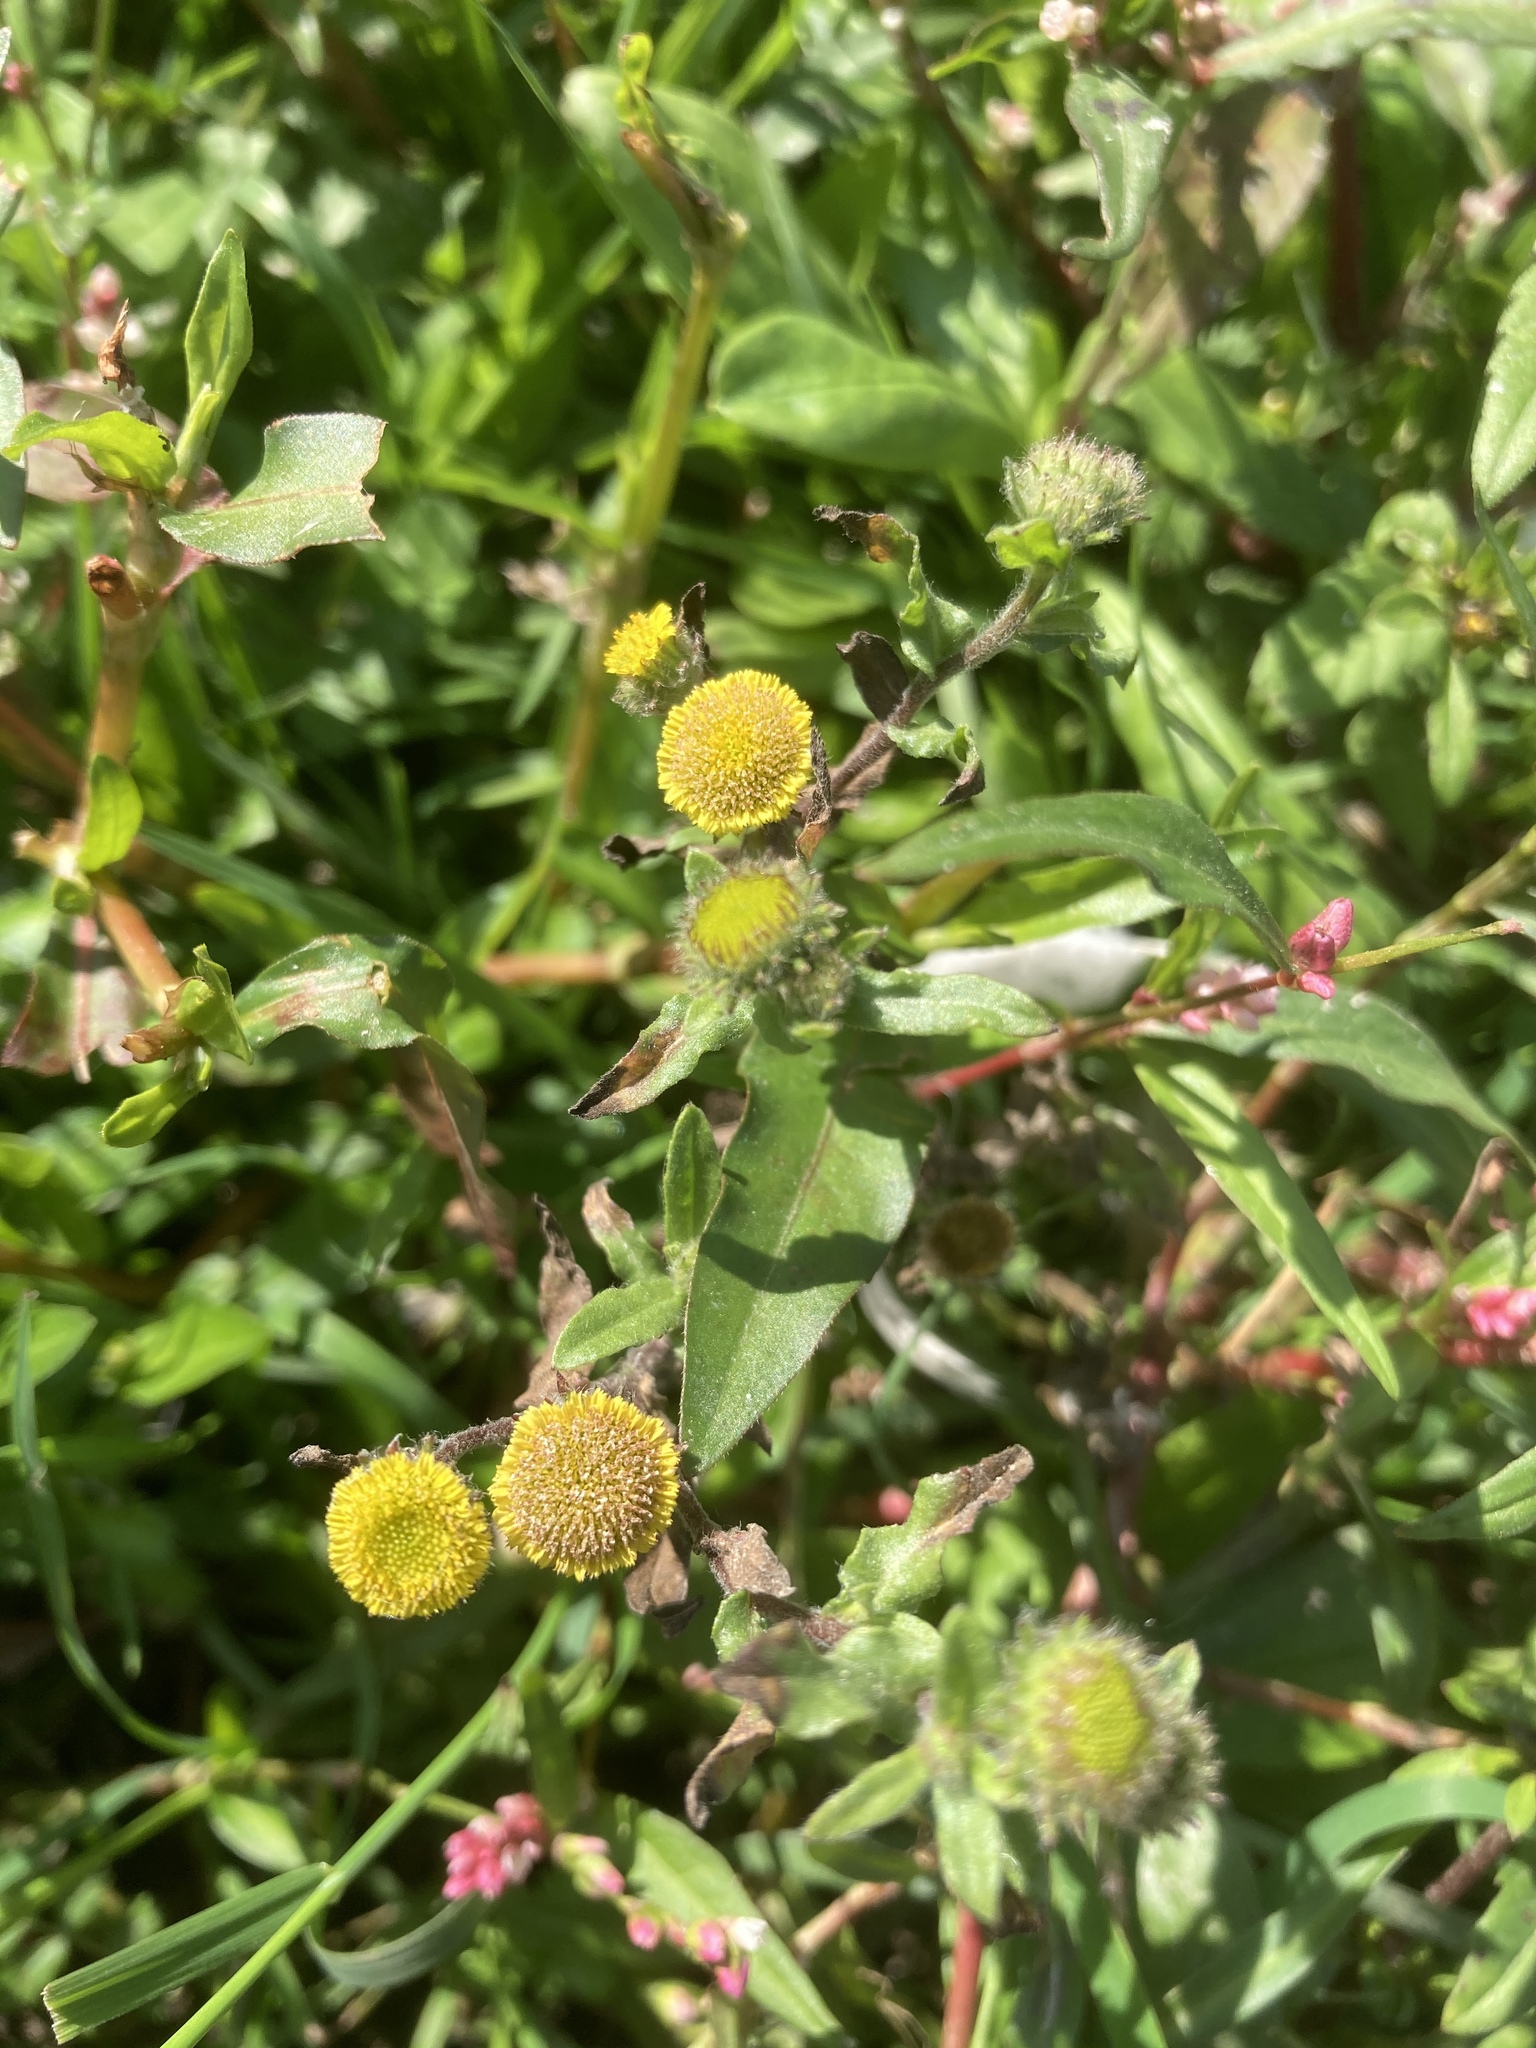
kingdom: Plantae
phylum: Tracheophyta
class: Magnoliopsida
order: Asterales
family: Asteraceae
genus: Pulicaria
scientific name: Pulicaria vulgaris
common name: Small fleabane
